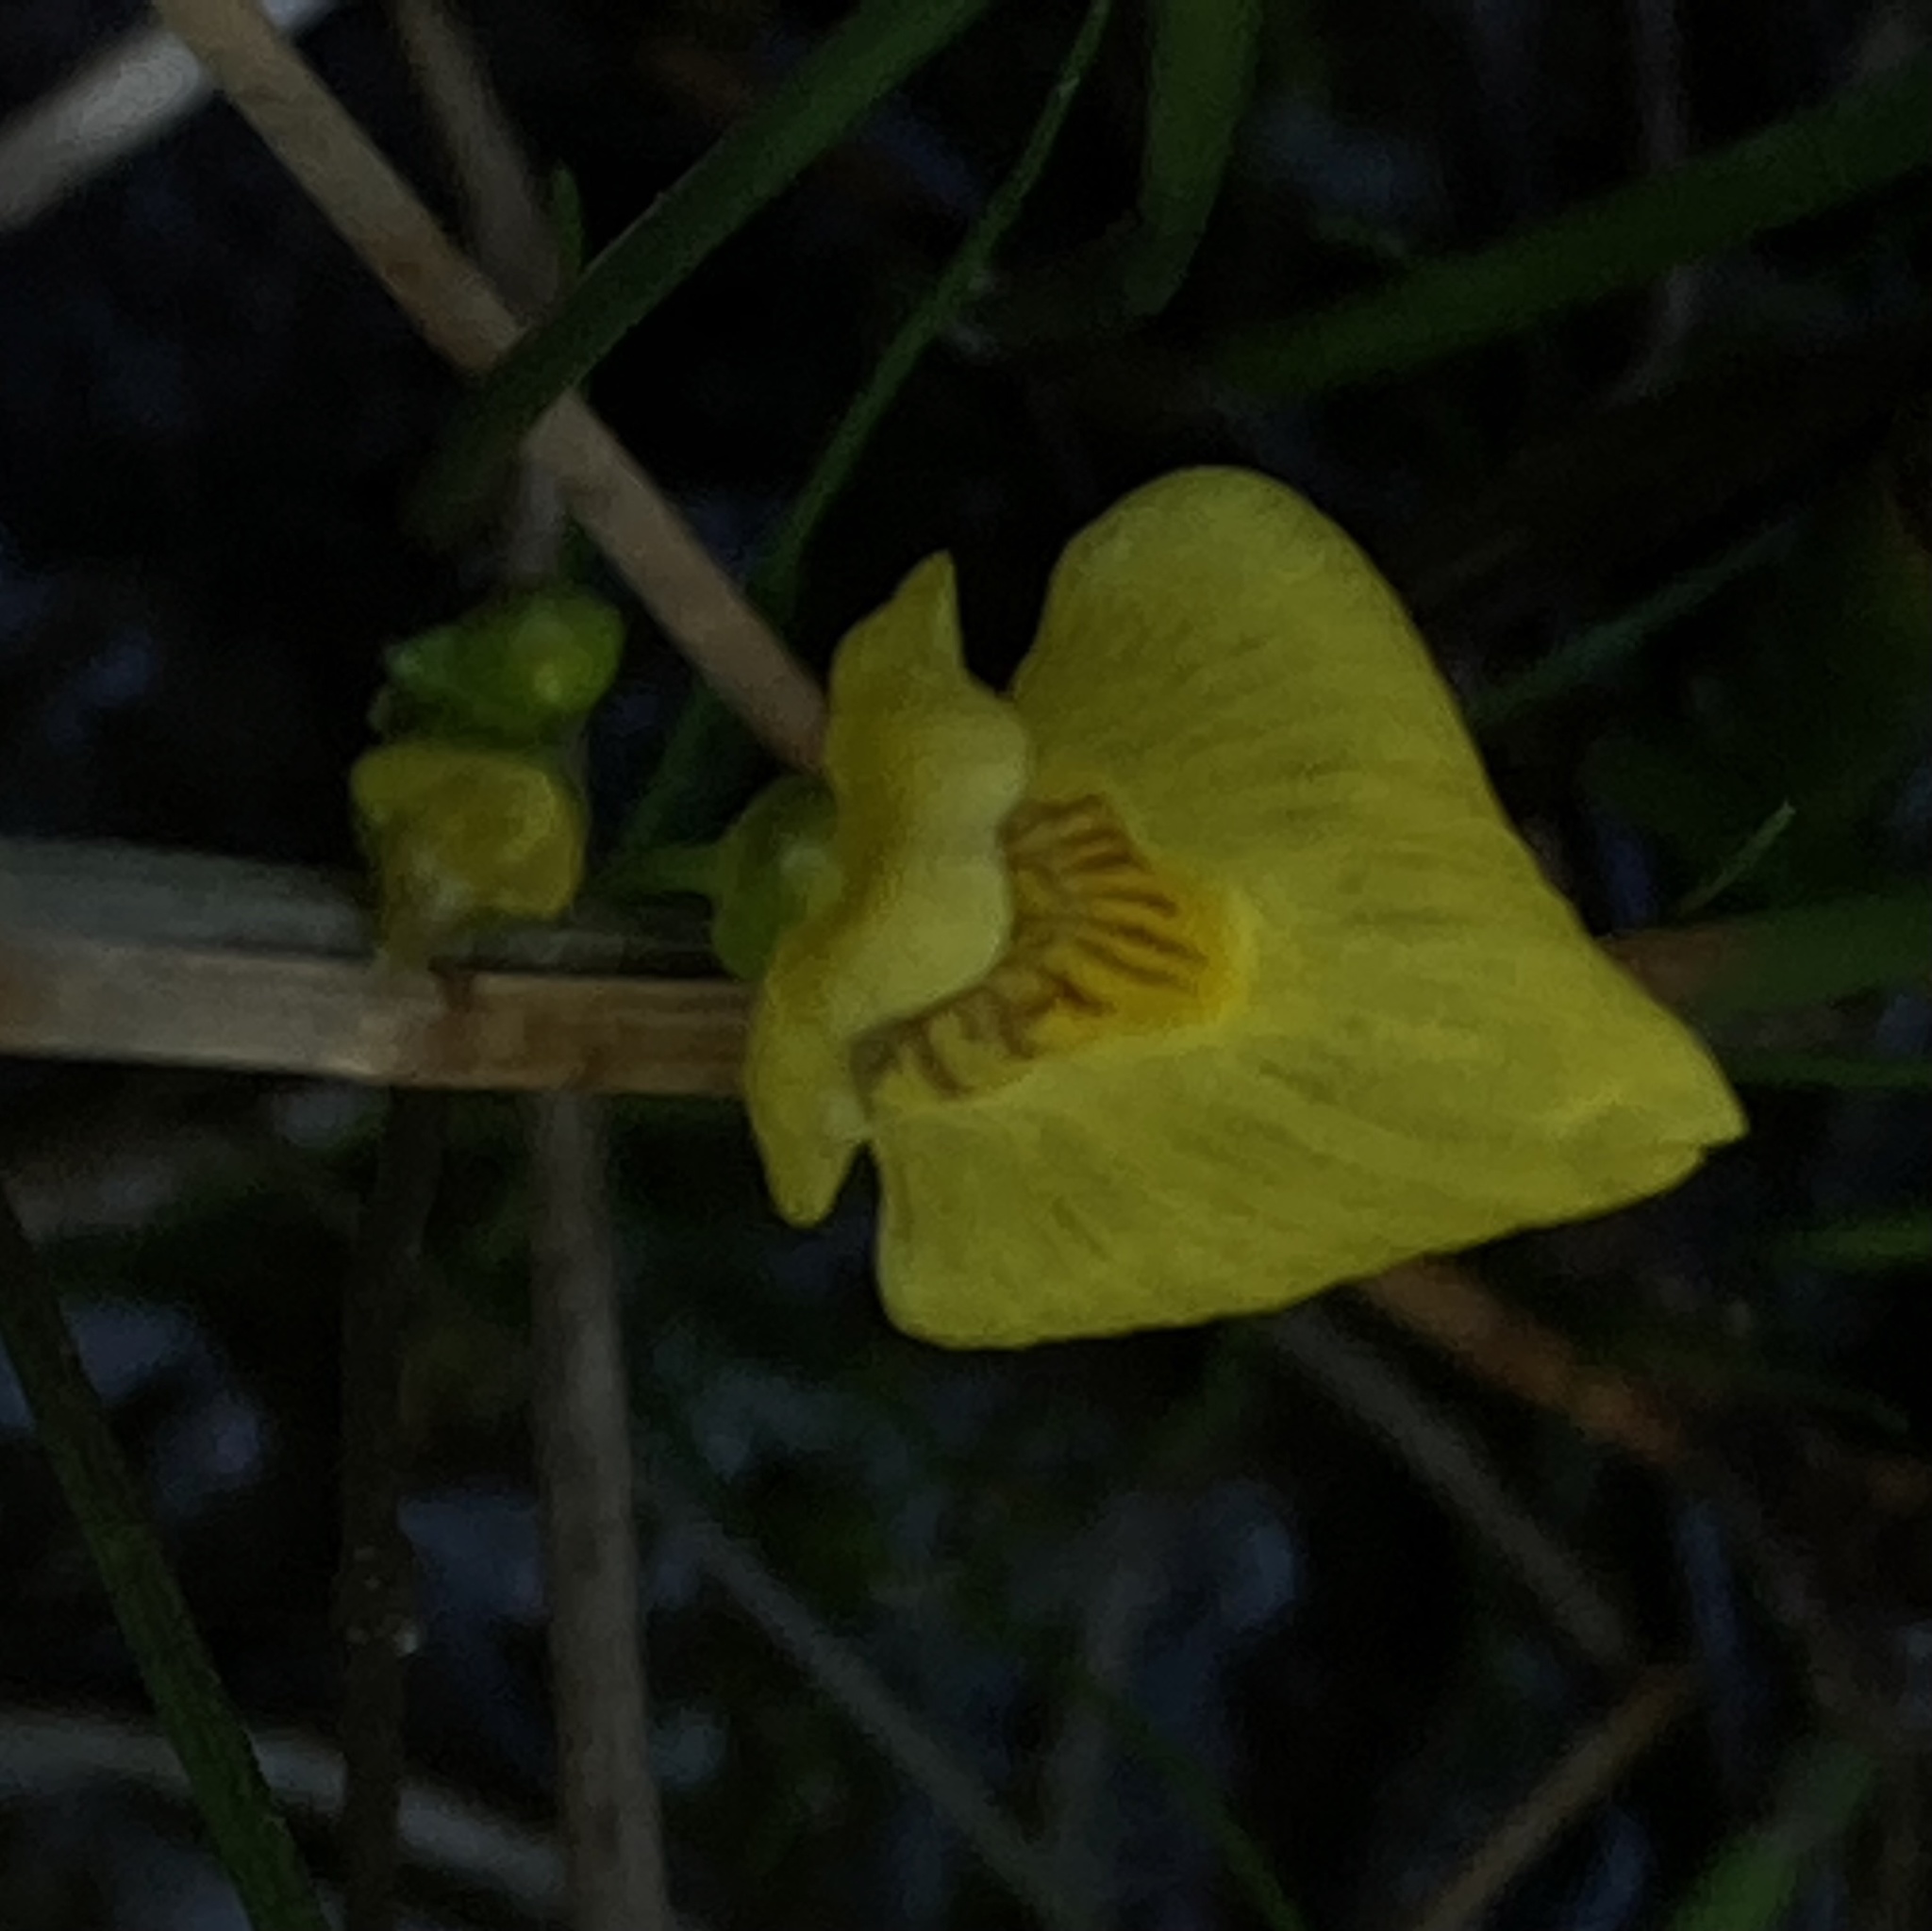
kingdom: Plantae
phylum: Tracheophyta
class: Magnoliopsida
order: Lamiales
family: Lentibulariaceae
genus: Utricularia
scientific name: Utricularia ochroleuca
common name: Pale bladderwort
